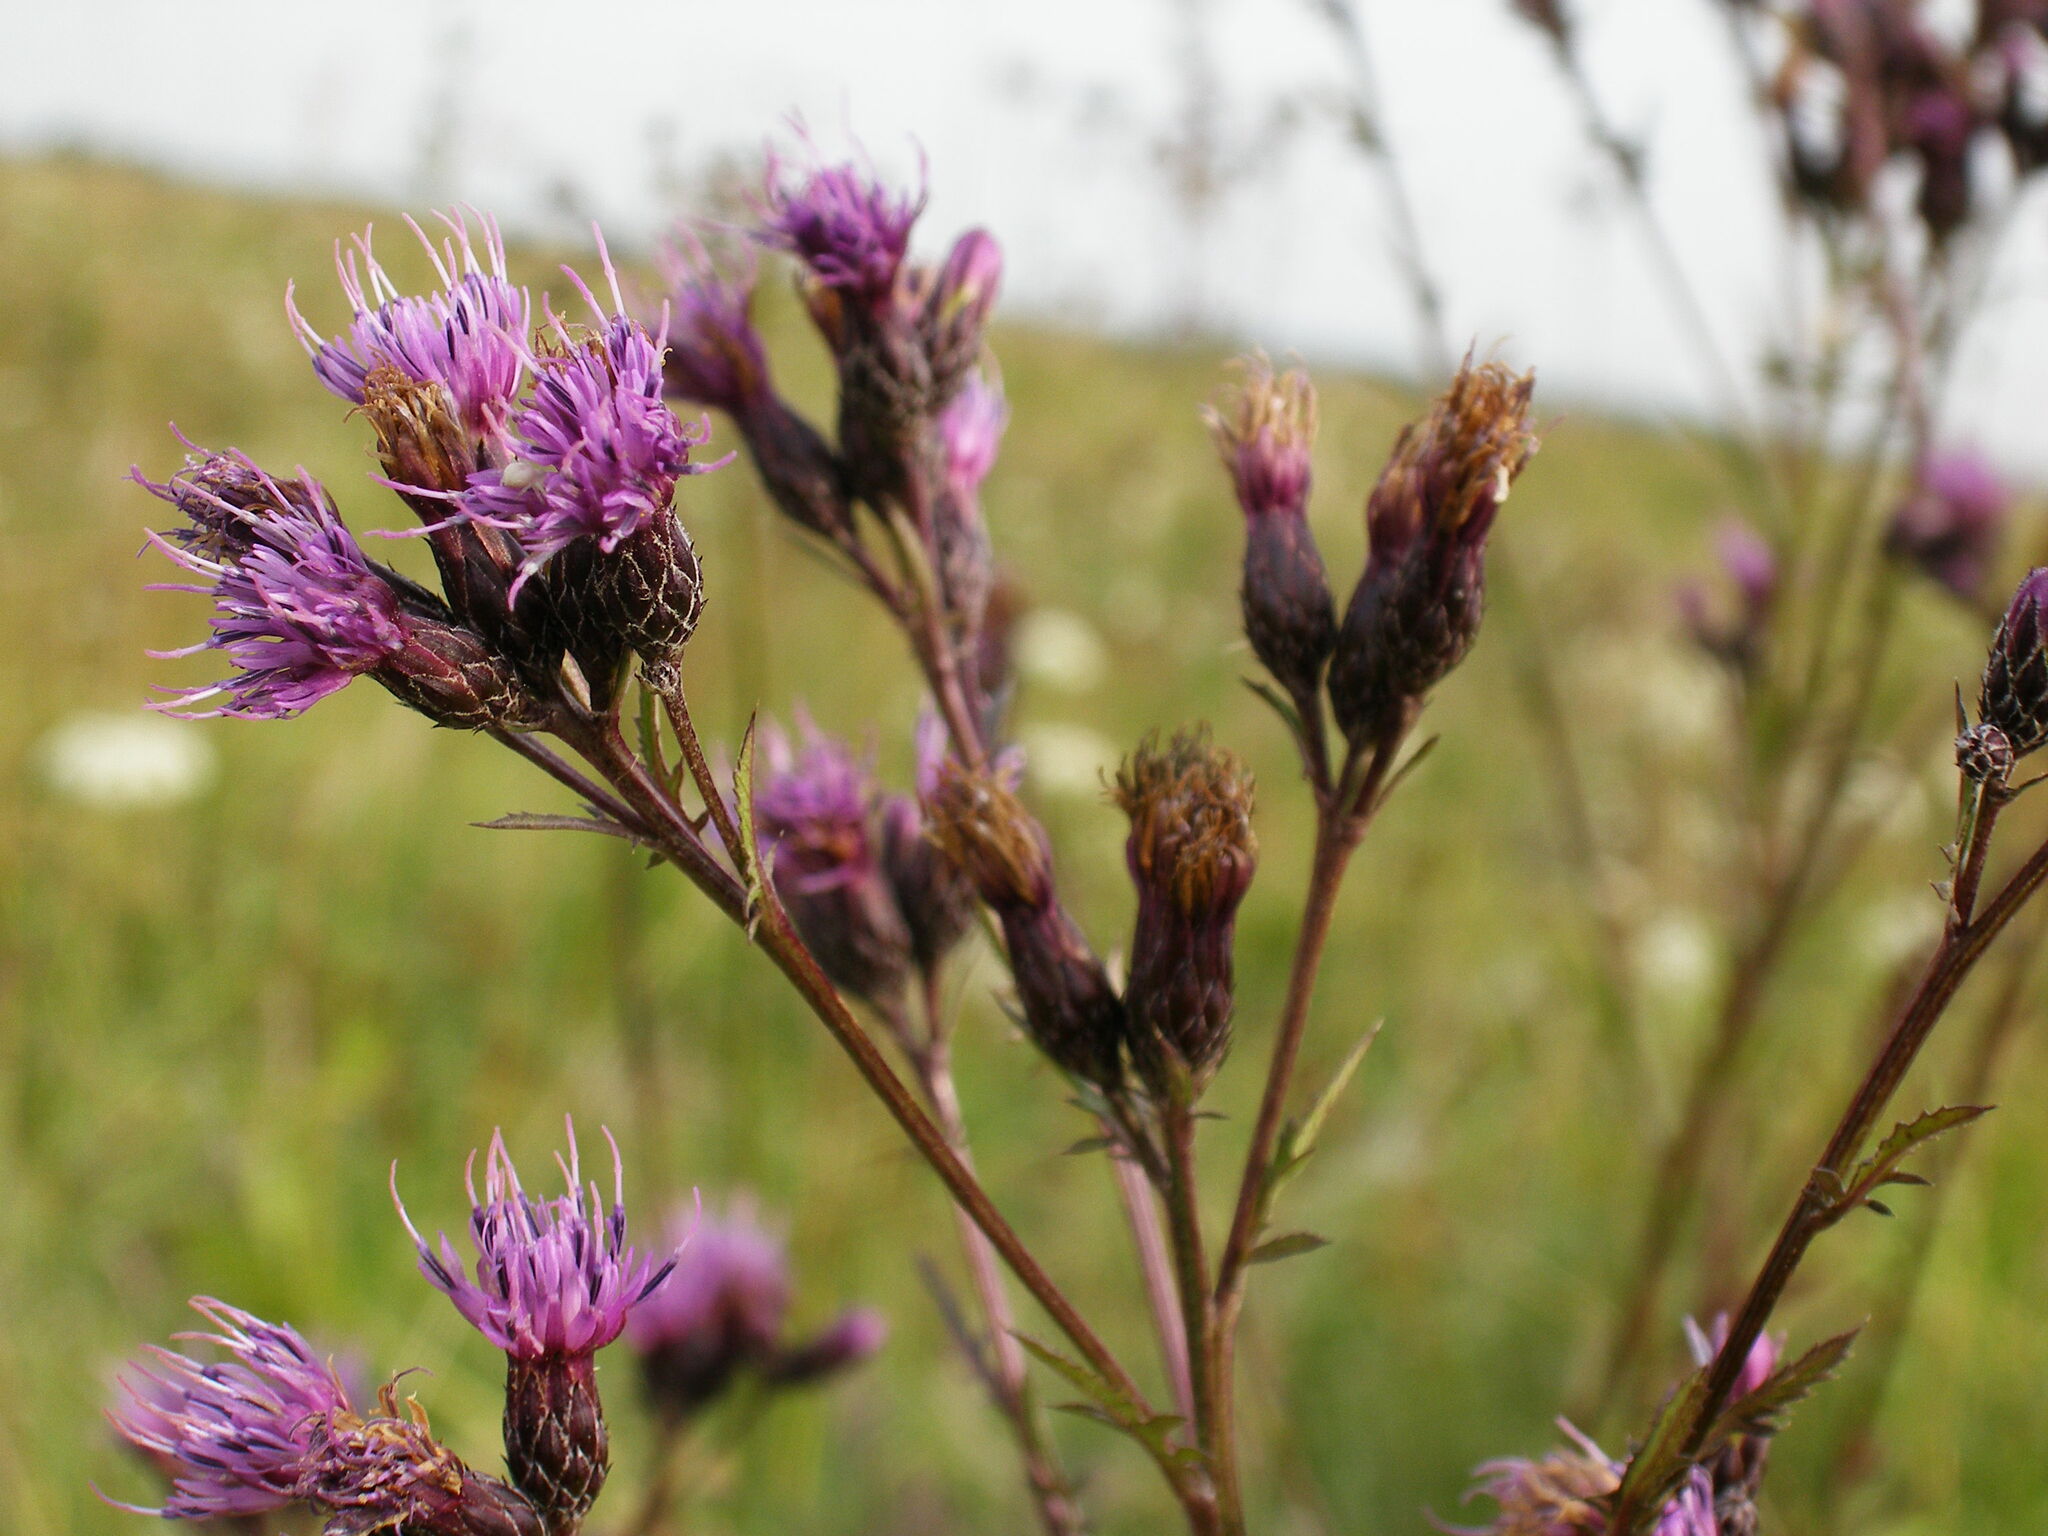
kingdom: Plantae
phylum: Tracheophyta
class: Magnoliopsida
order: Asterales
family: Asteraceae
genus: Serratula
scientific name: Serratula tinctoria
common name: Saw-wort
